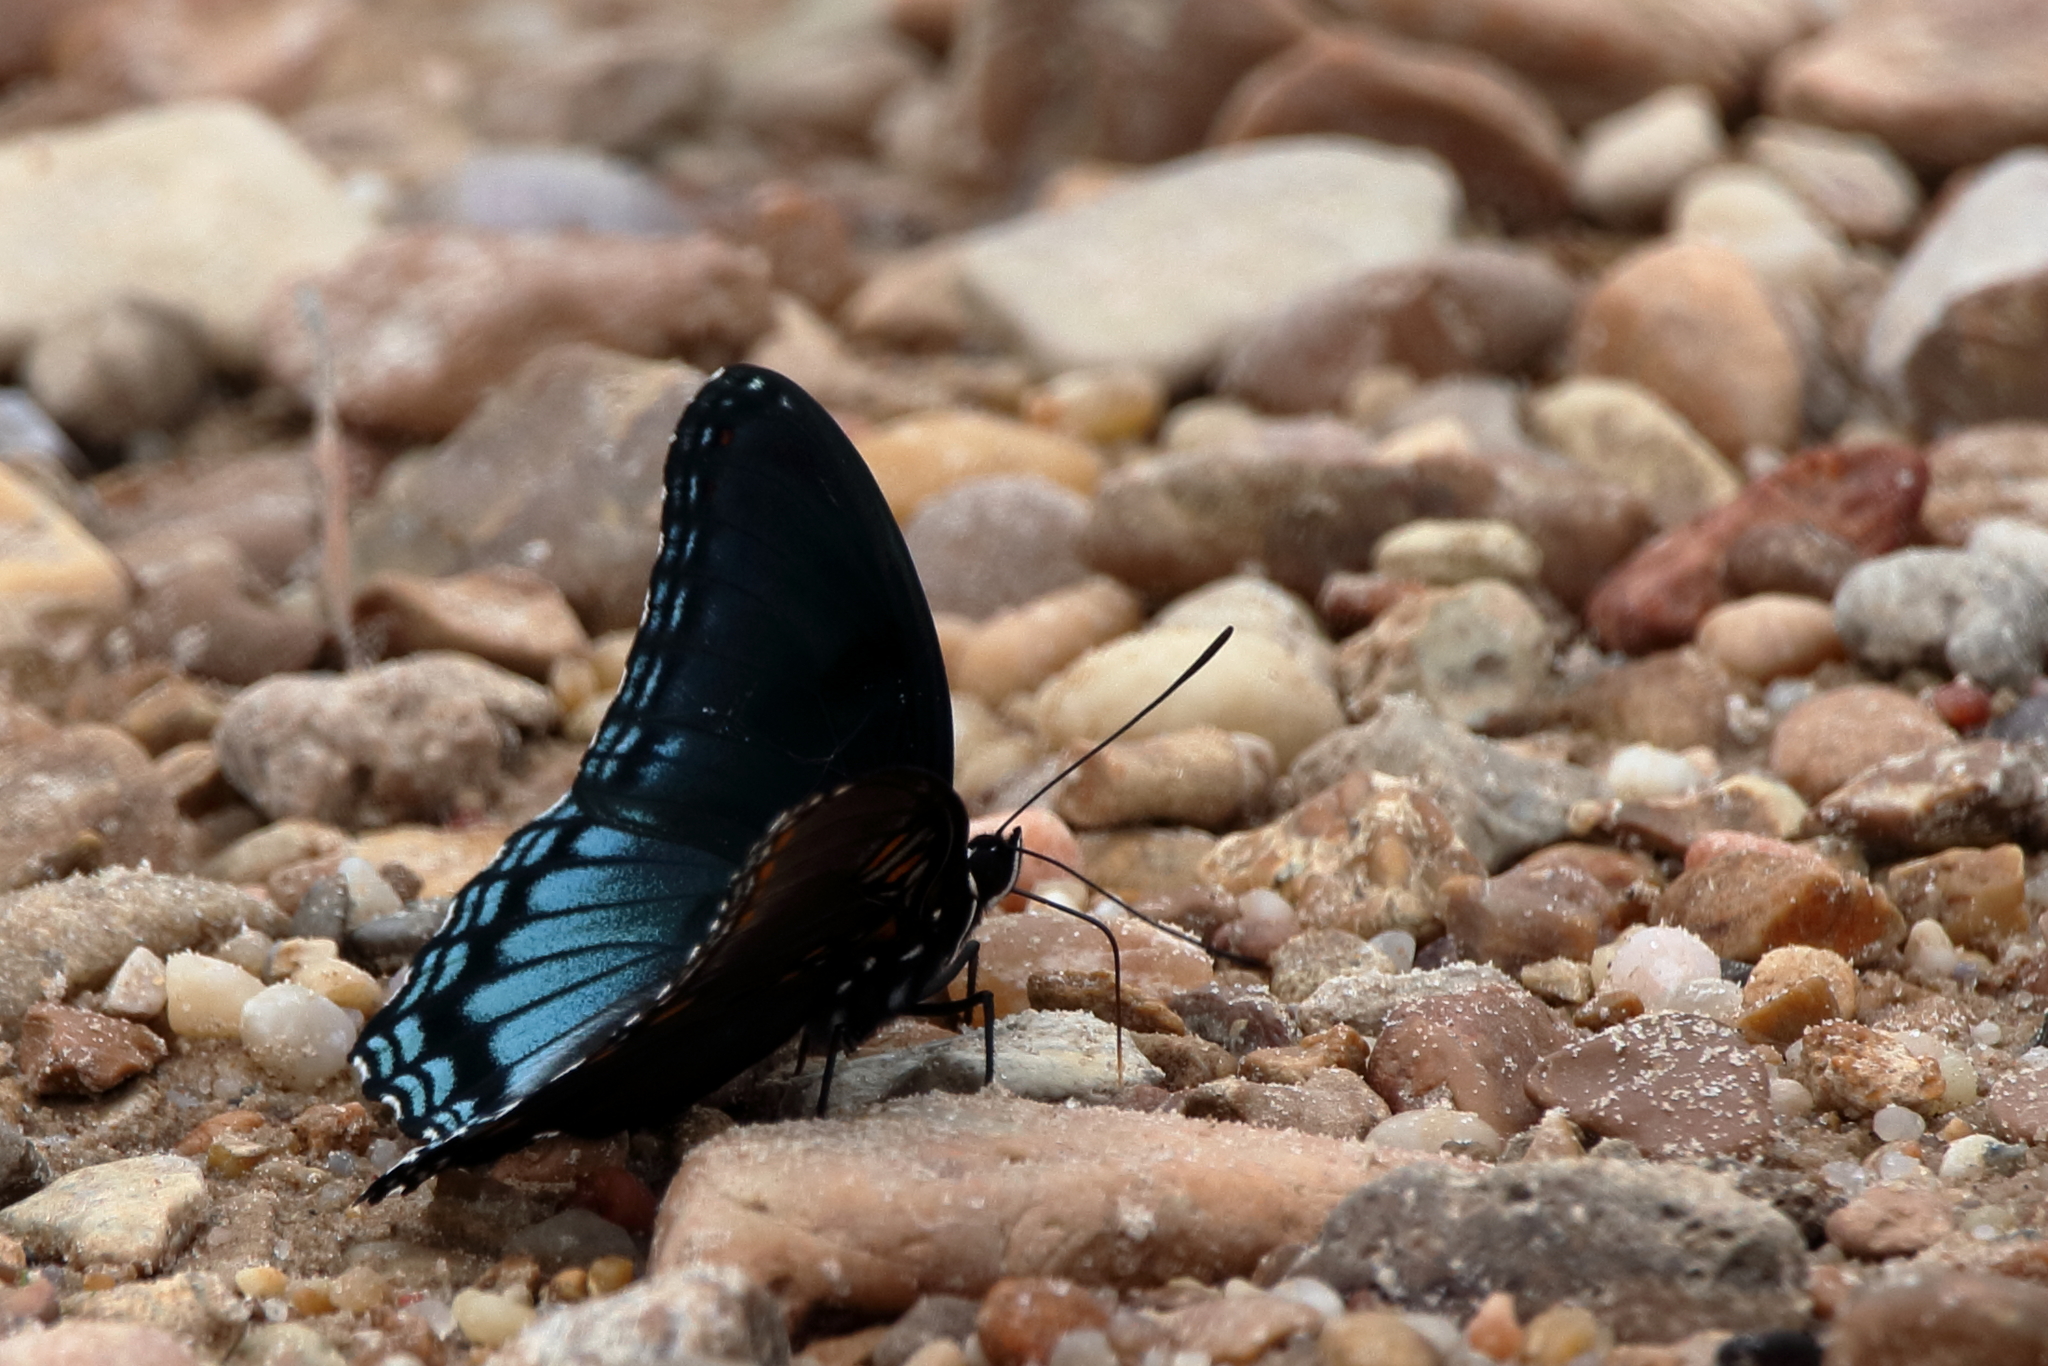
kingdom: Animalia
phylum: Arthropoda
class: Insecta
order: Lepidoptera
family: Nymphalidae
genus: Limenitis
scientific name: Limenitis arthemis
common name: Red-spotted admiral
